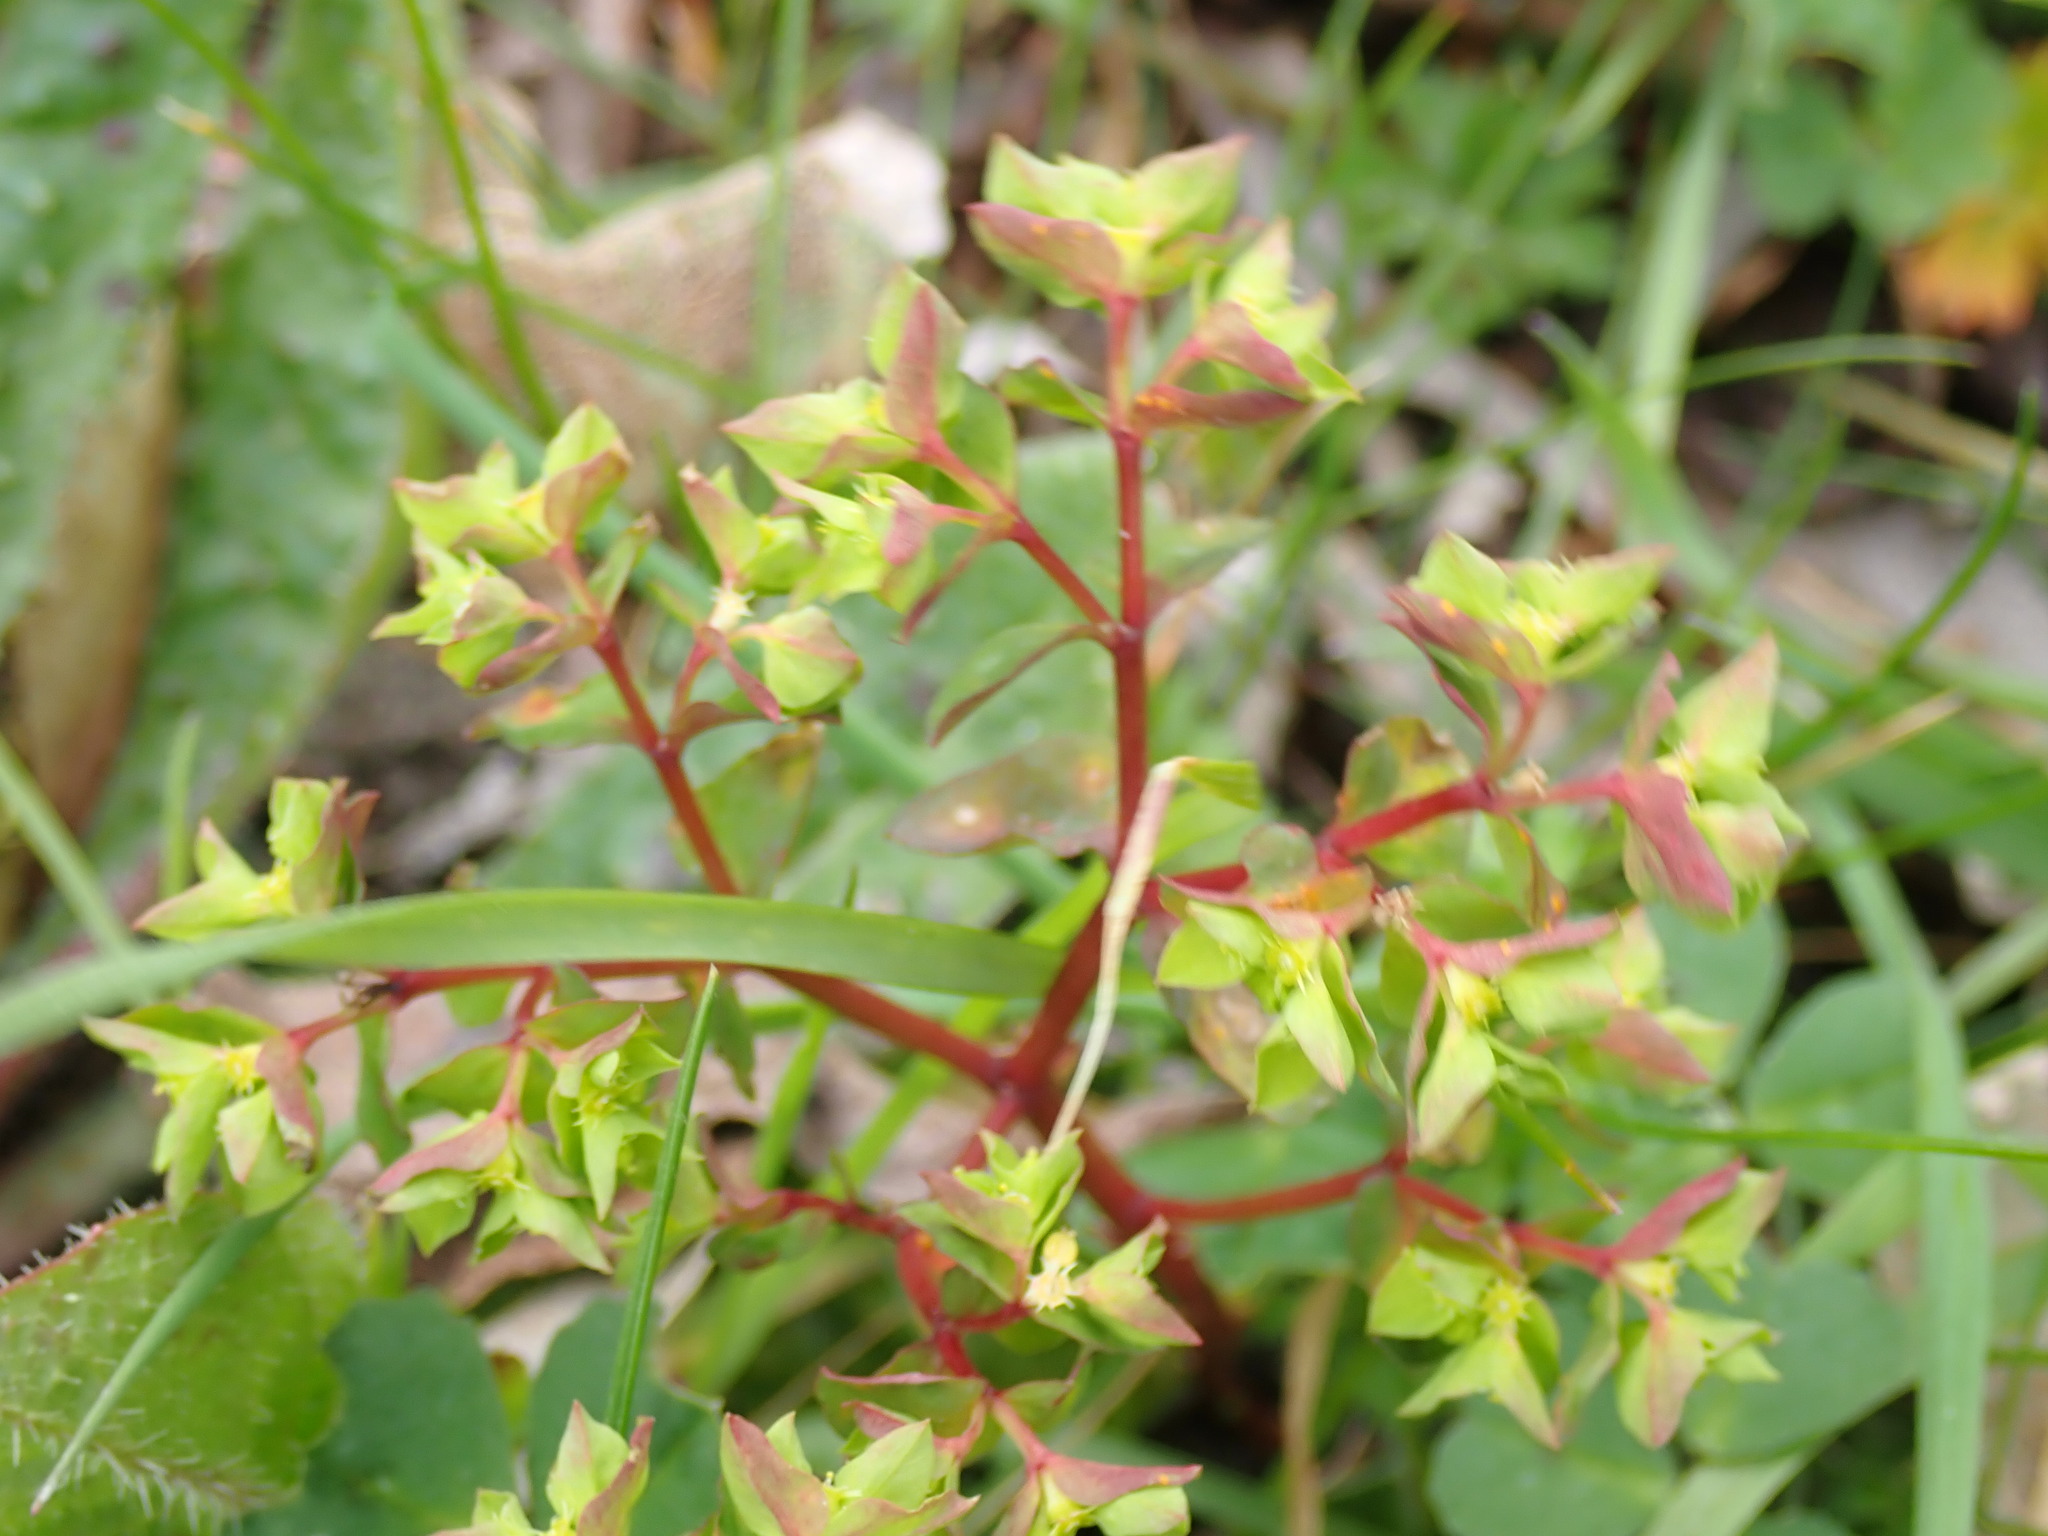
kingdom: Plantae
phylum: Tracheophyta
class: Magnoliopsida
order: Malpighiales
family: Euphorbiaceae
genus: Euphorbia
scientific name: Euphorbia peplus
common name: Petty spurge
